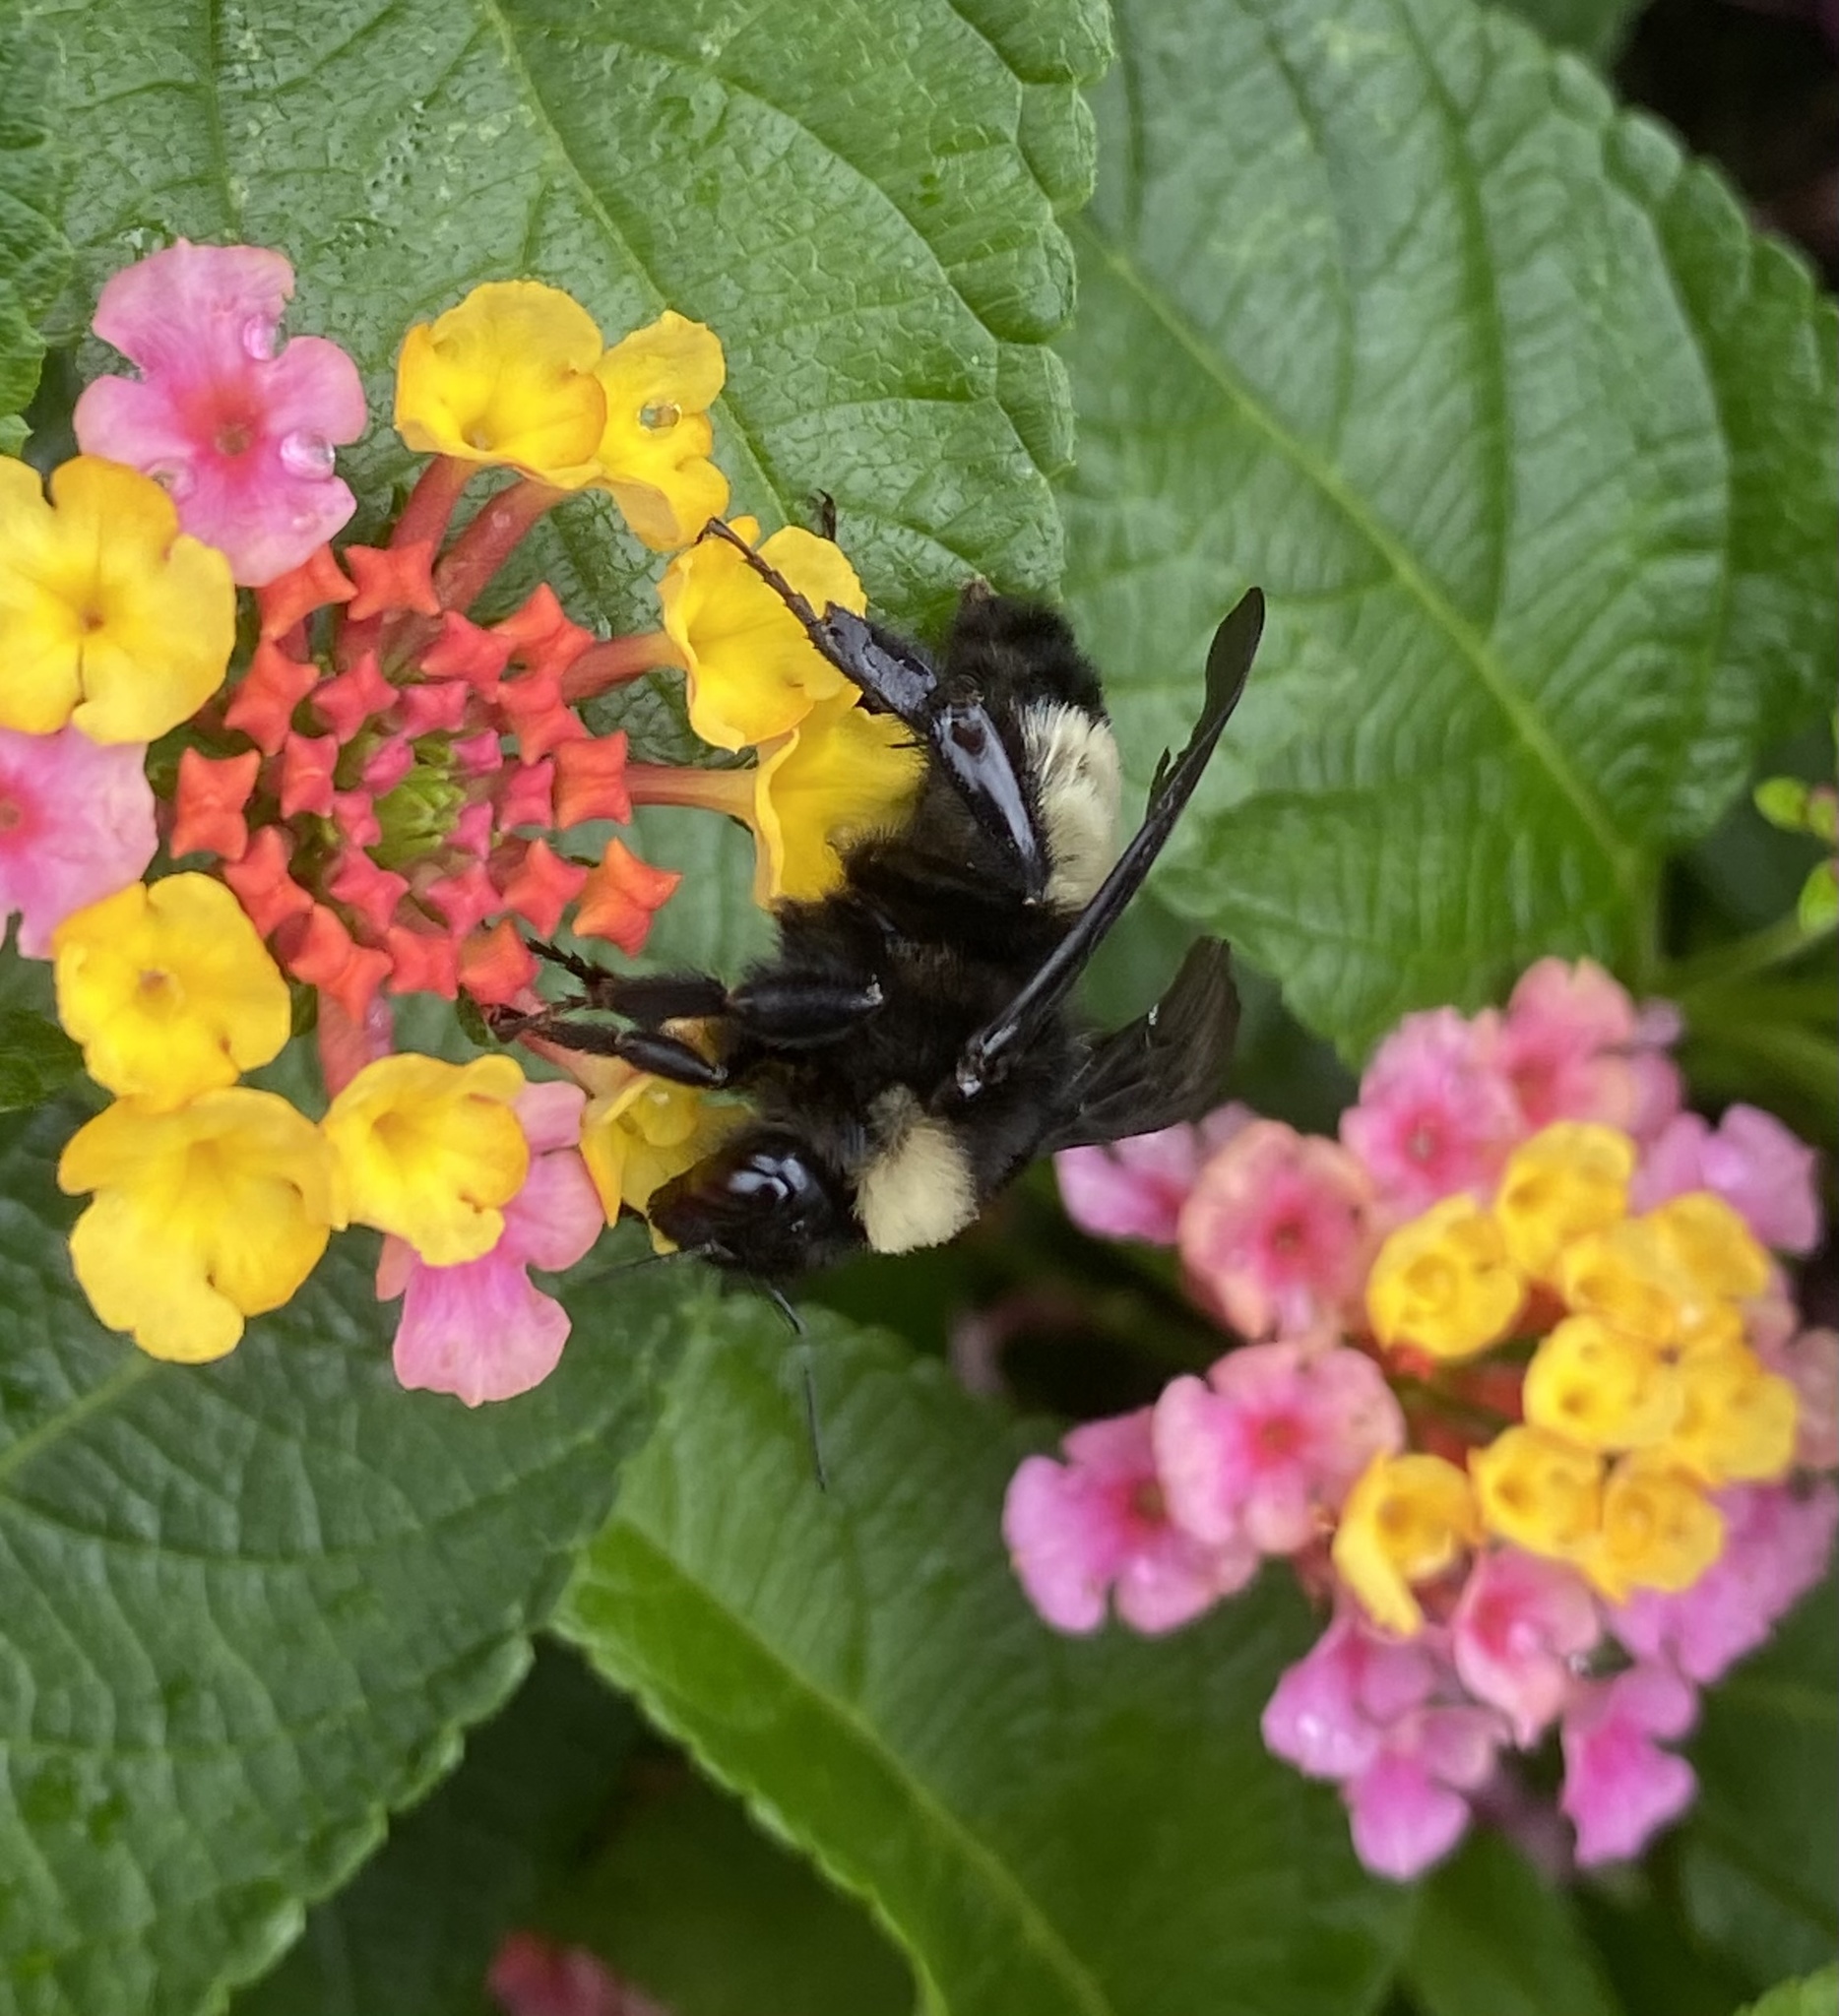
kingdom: Animalia
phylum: Arthropoda
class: Insecta
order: Hymenoptera
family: Apidae
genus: Bombus
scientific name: Bombus pensylvanicus
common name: Bumble bee
